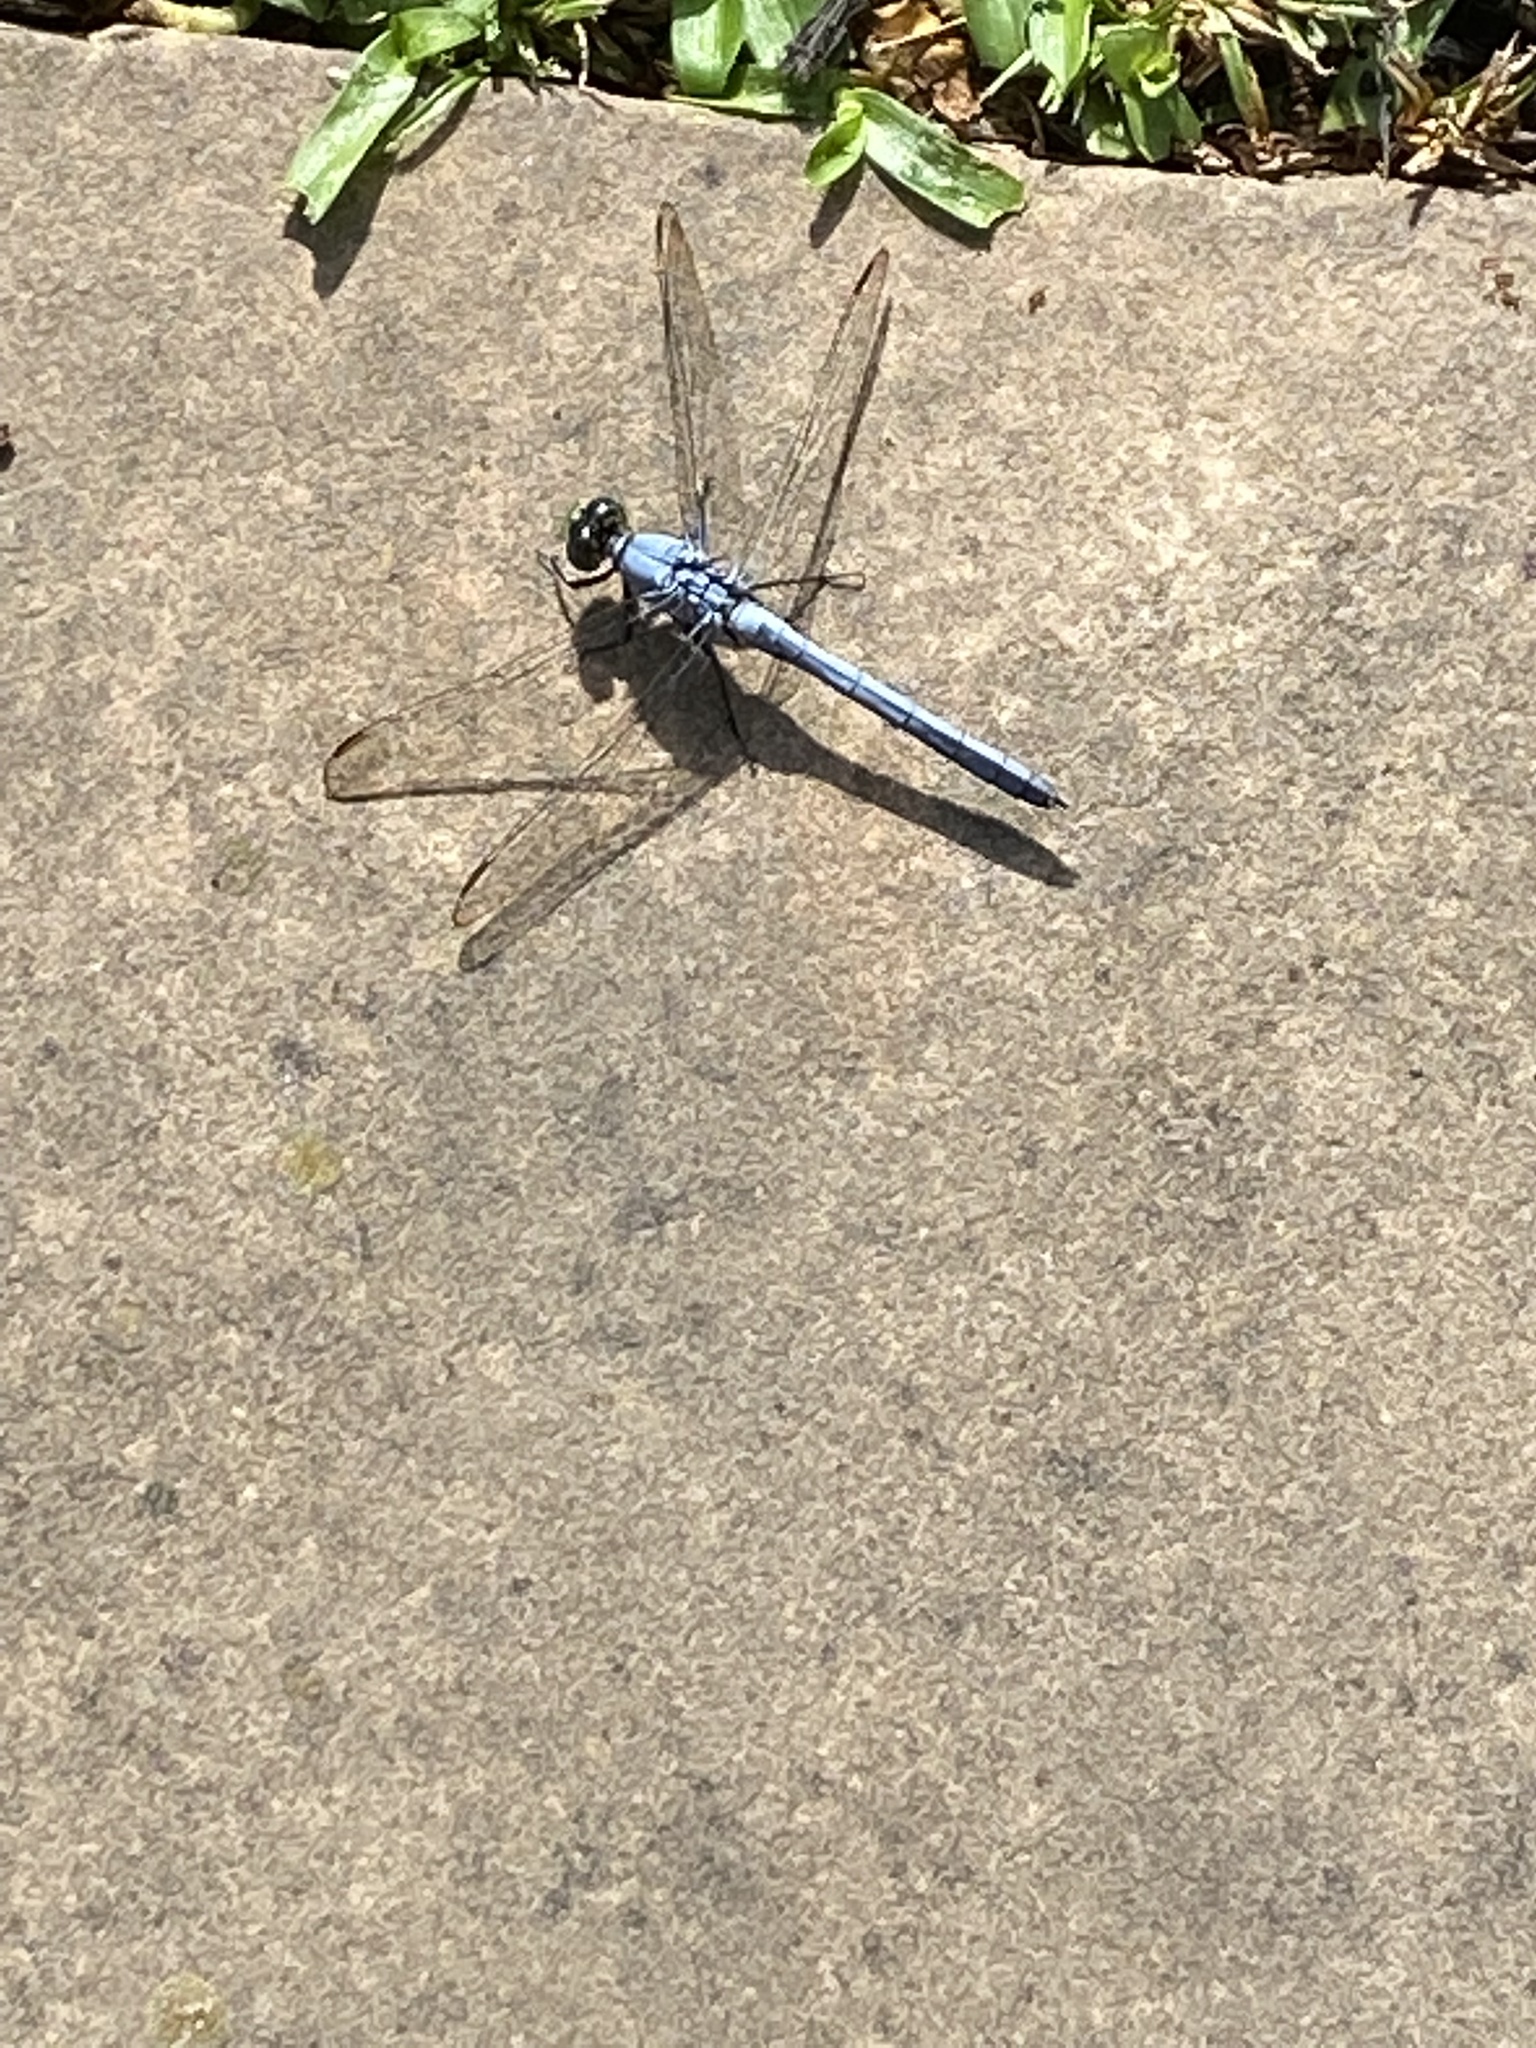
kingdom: Animalia
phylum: Arthropoda
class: Insecta
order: Odonata
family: Libellulidae
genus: Erythemis
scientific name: Erythemis simplicicollis
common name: Eastern pondhawk
